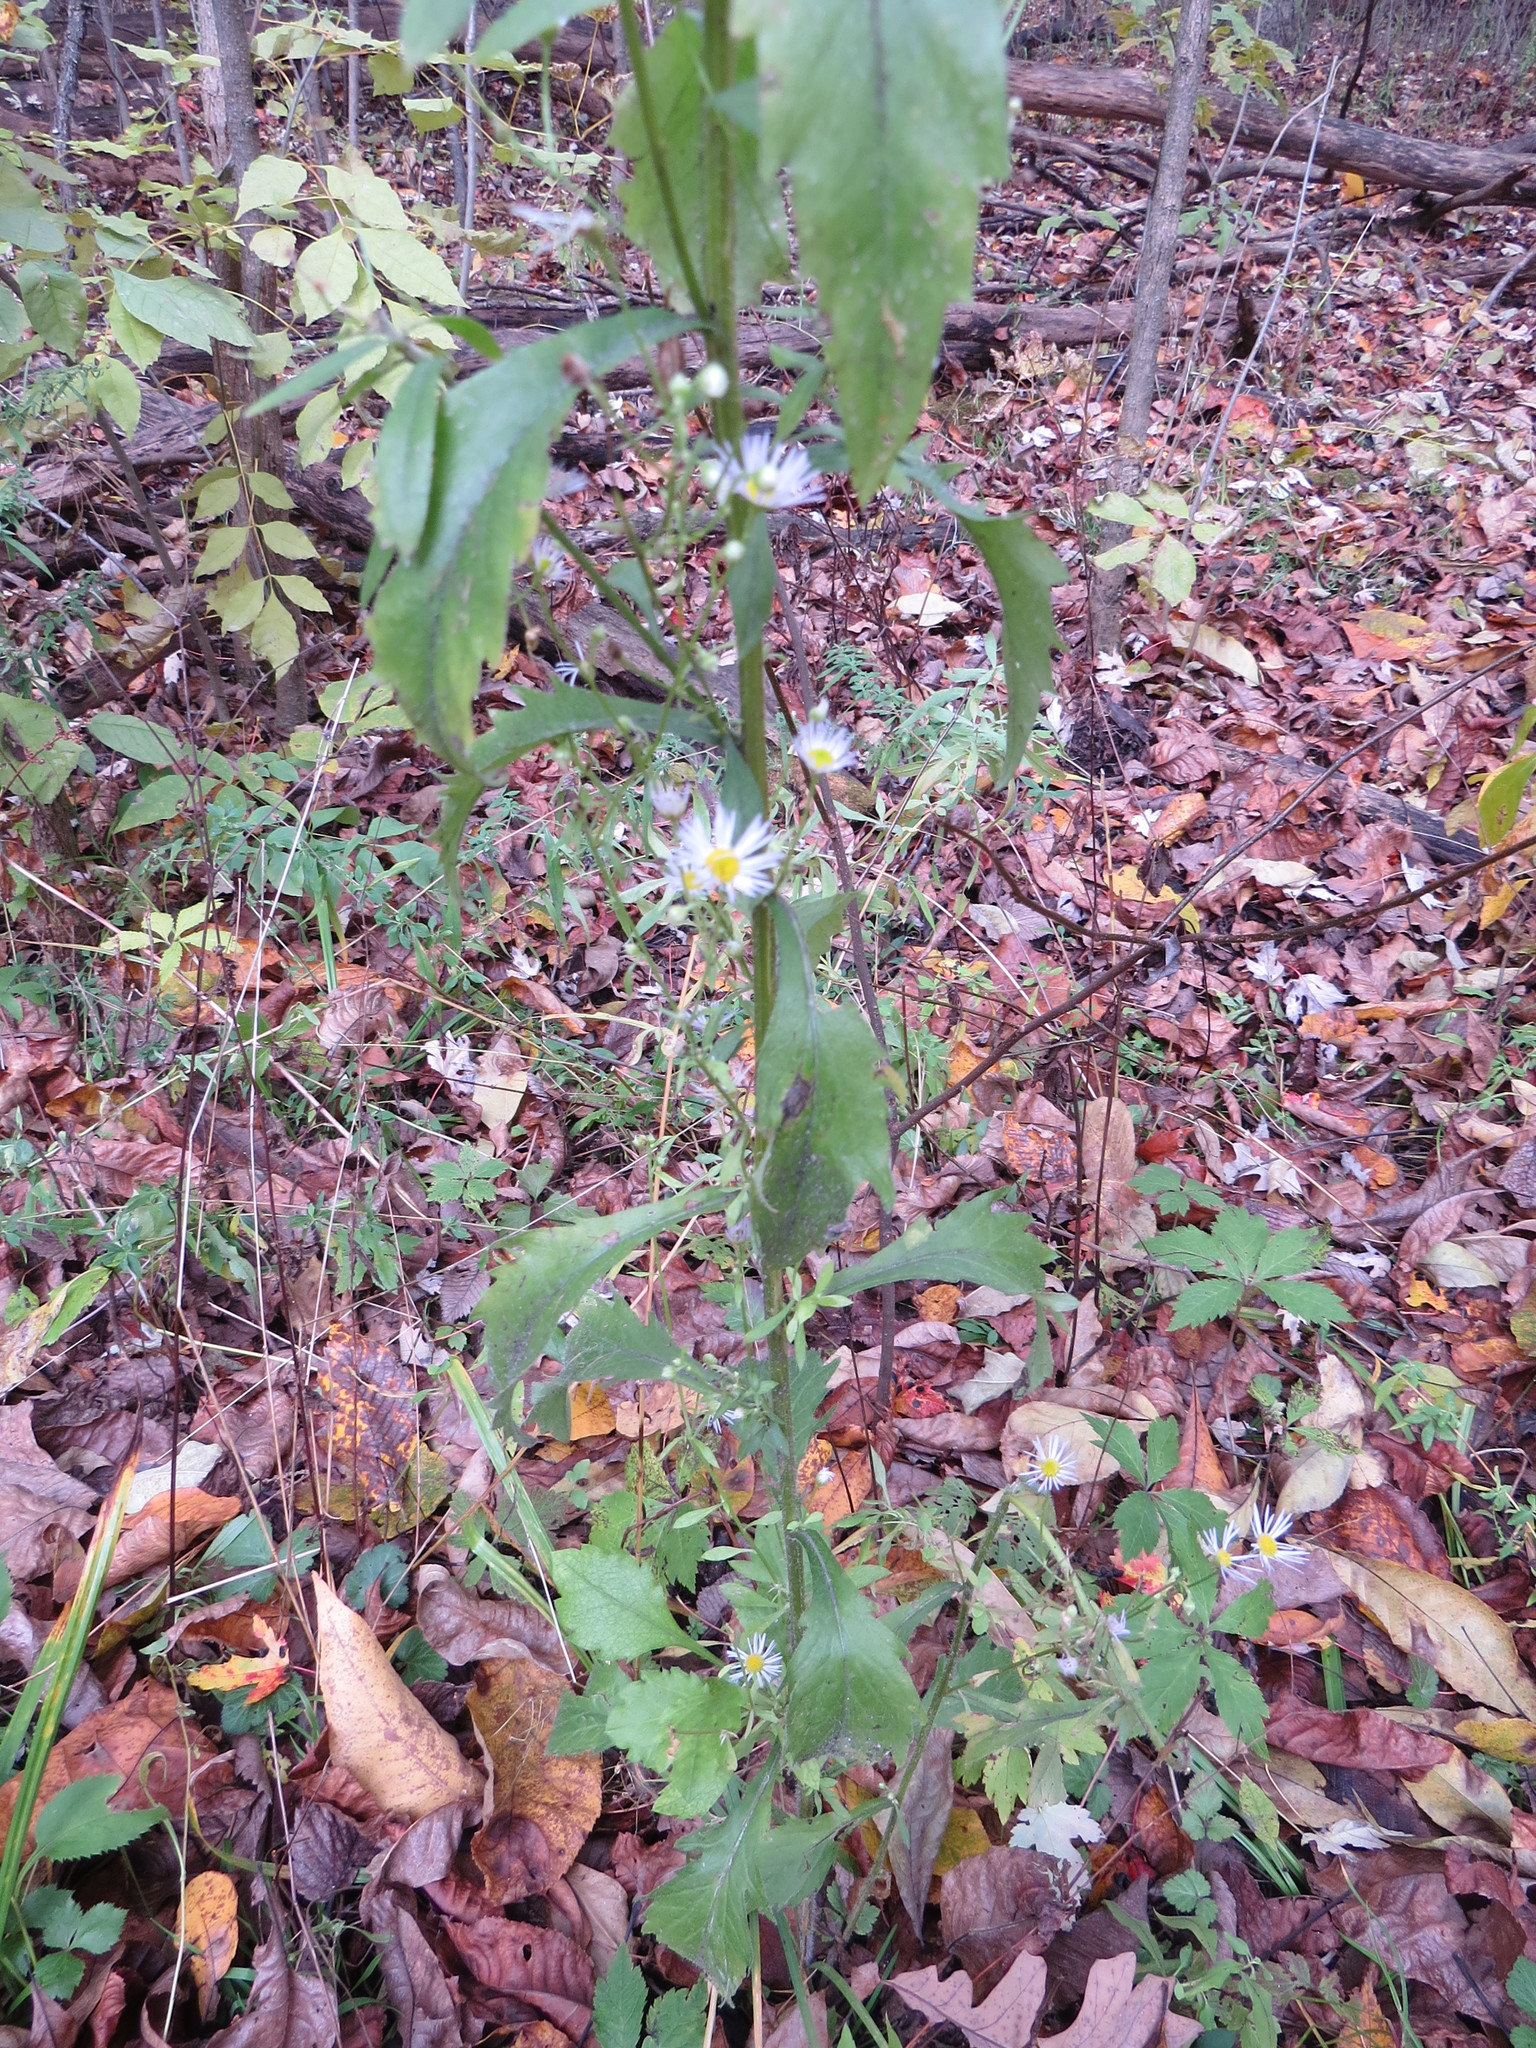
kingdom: Plantae
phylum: Tracheophyta
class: Magnoliopsida
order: Asterales
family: Asteraceae
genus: Erigeron
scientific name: Erigeron annuus
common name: Tall fleabane
